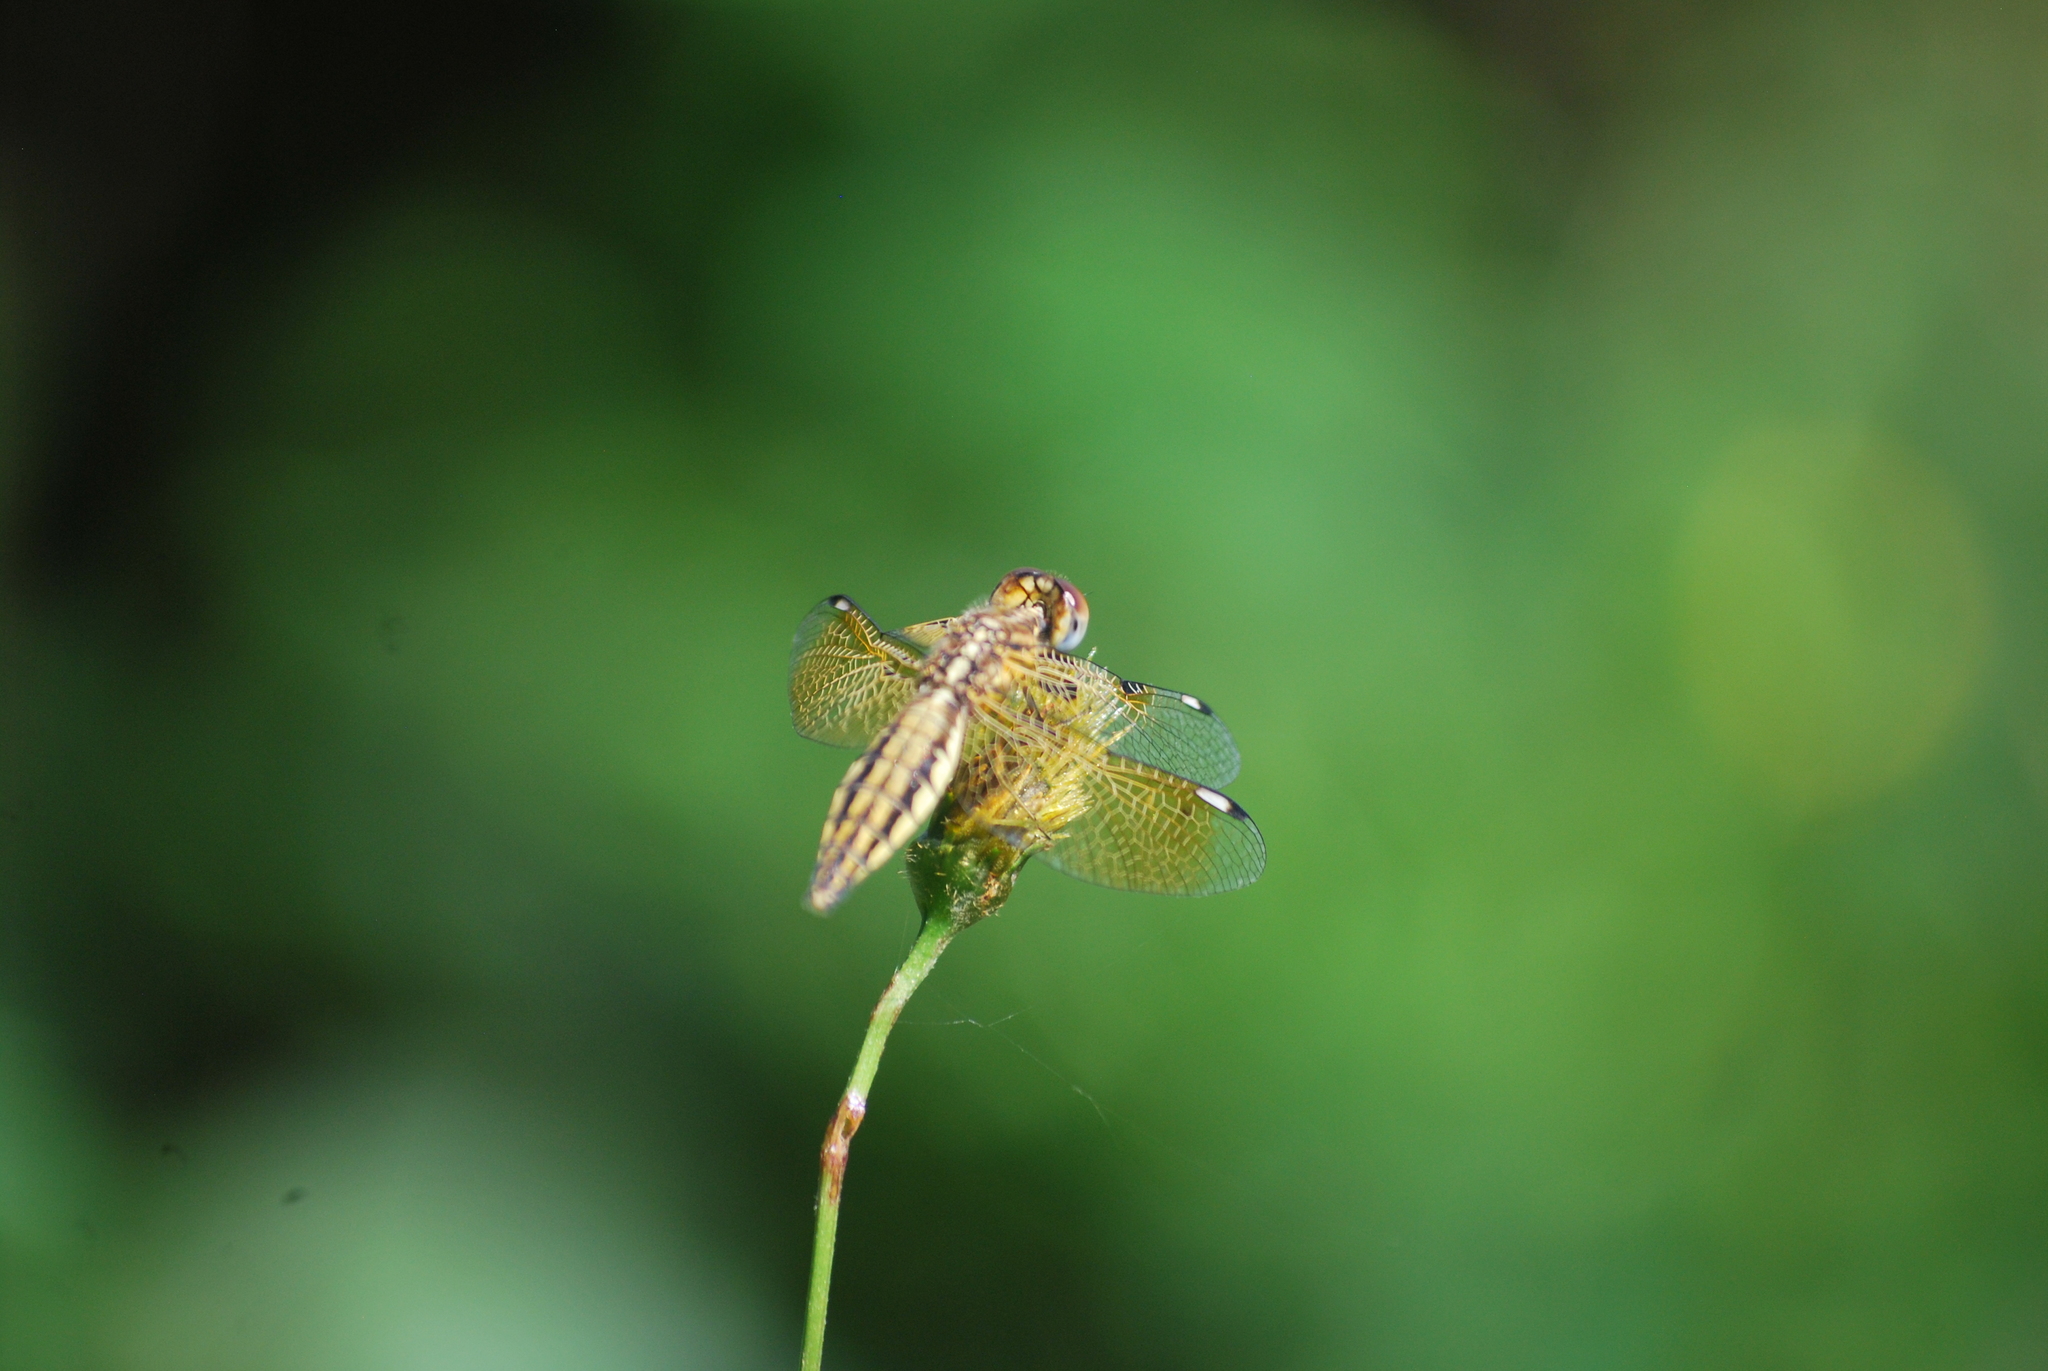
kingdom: Animalia
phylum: Arthropoda
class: Insecta
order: Odonata
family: Libellulidae
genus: Palpopleura
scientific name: Palpopleura sexmaculata
